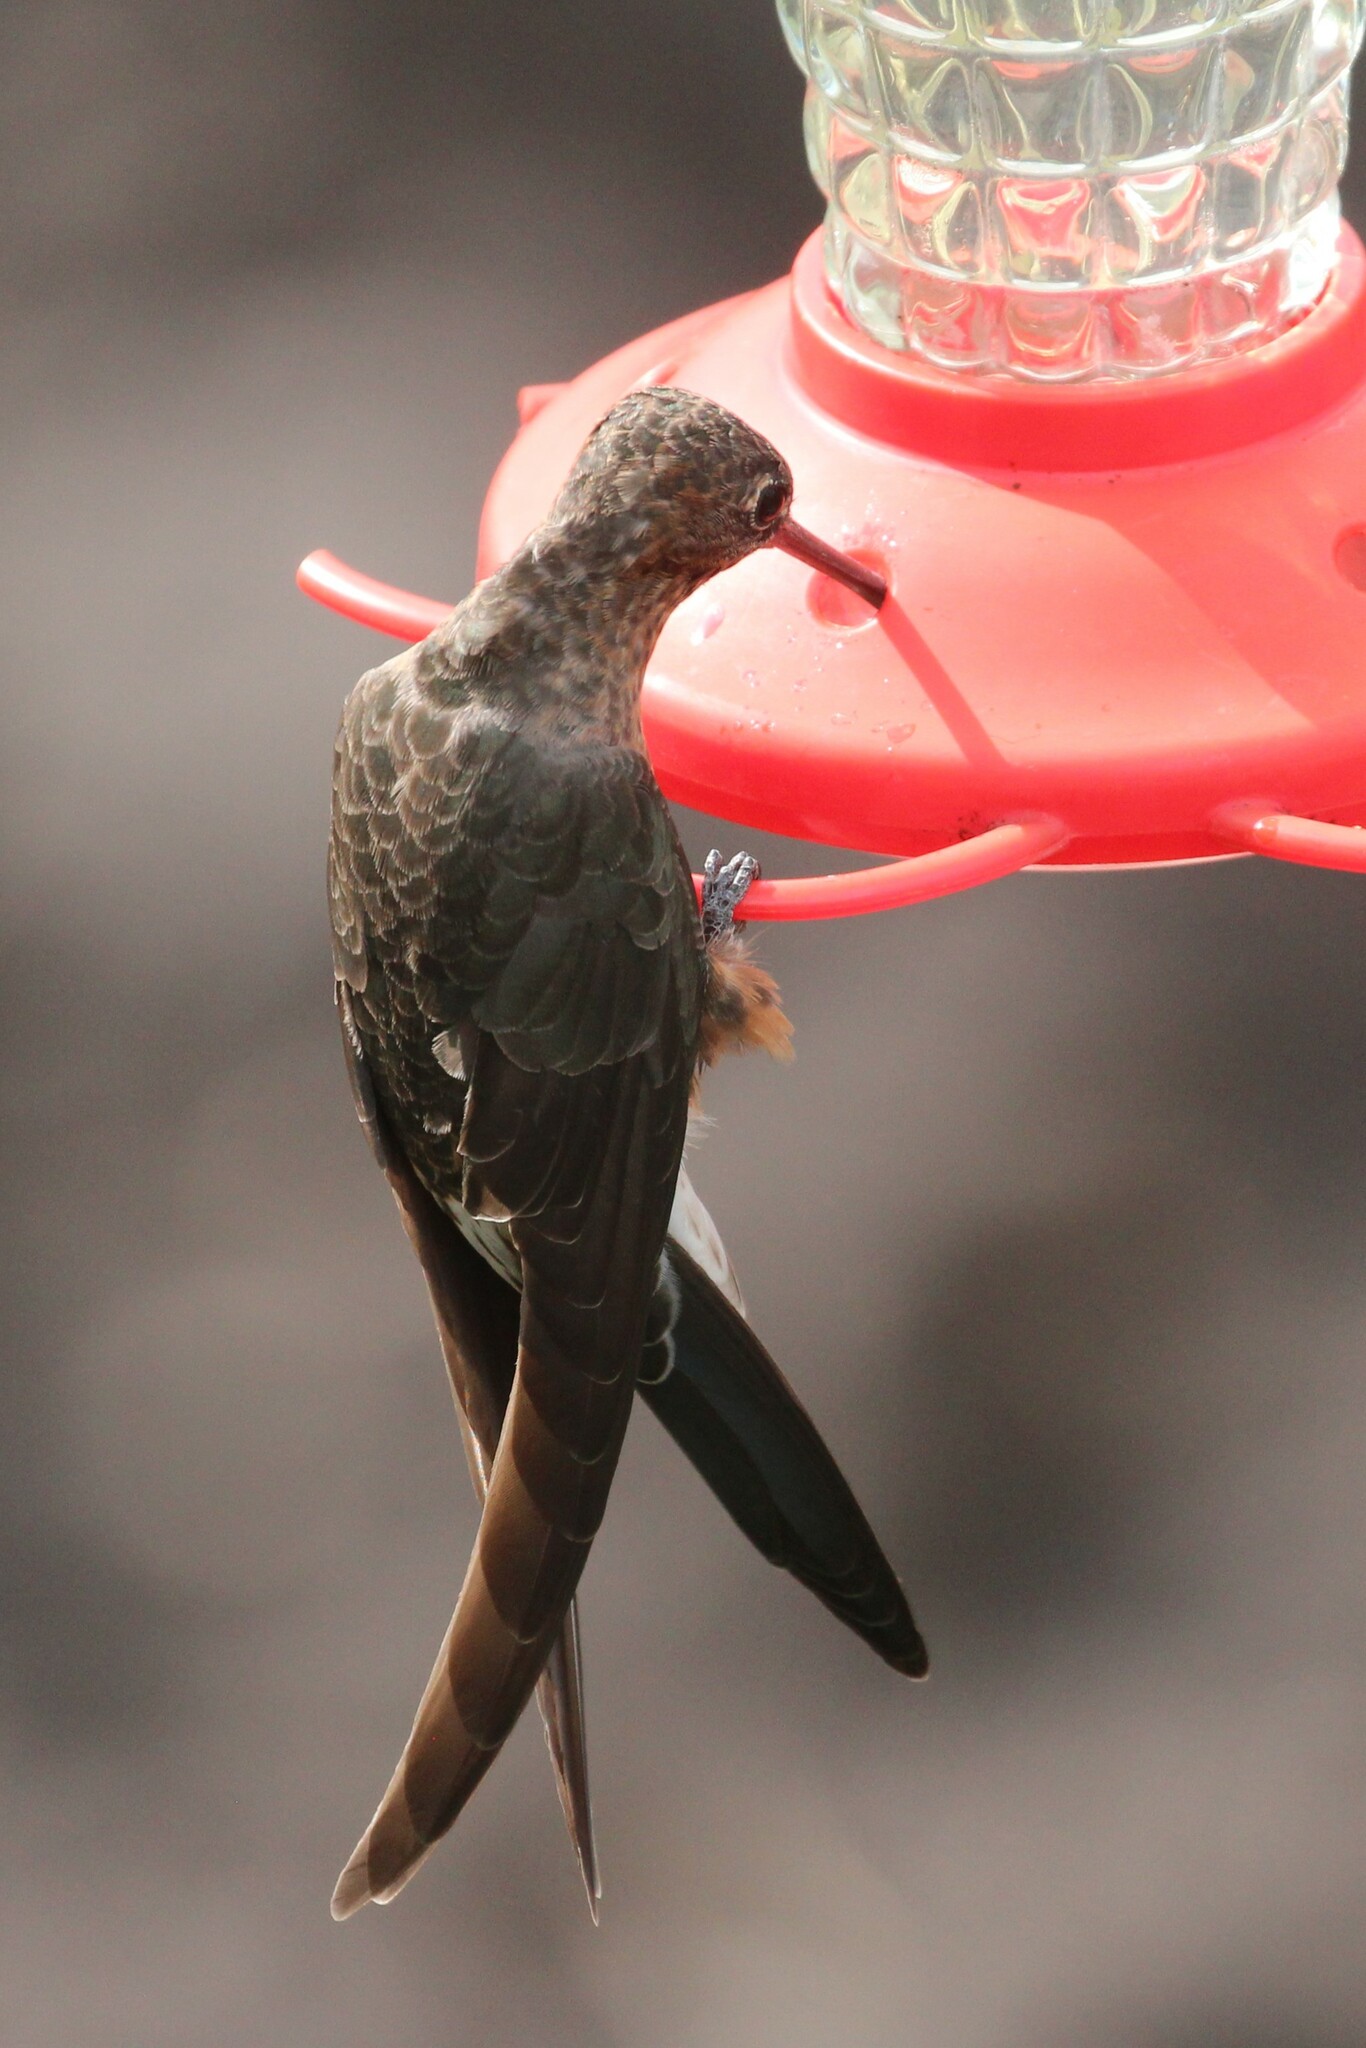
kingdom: Animalia
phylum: Chordata
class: Aves
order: Apodiformes
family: Trochilidae
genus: Patagona
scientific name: Patagona gigas
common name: Giant hummingbird
